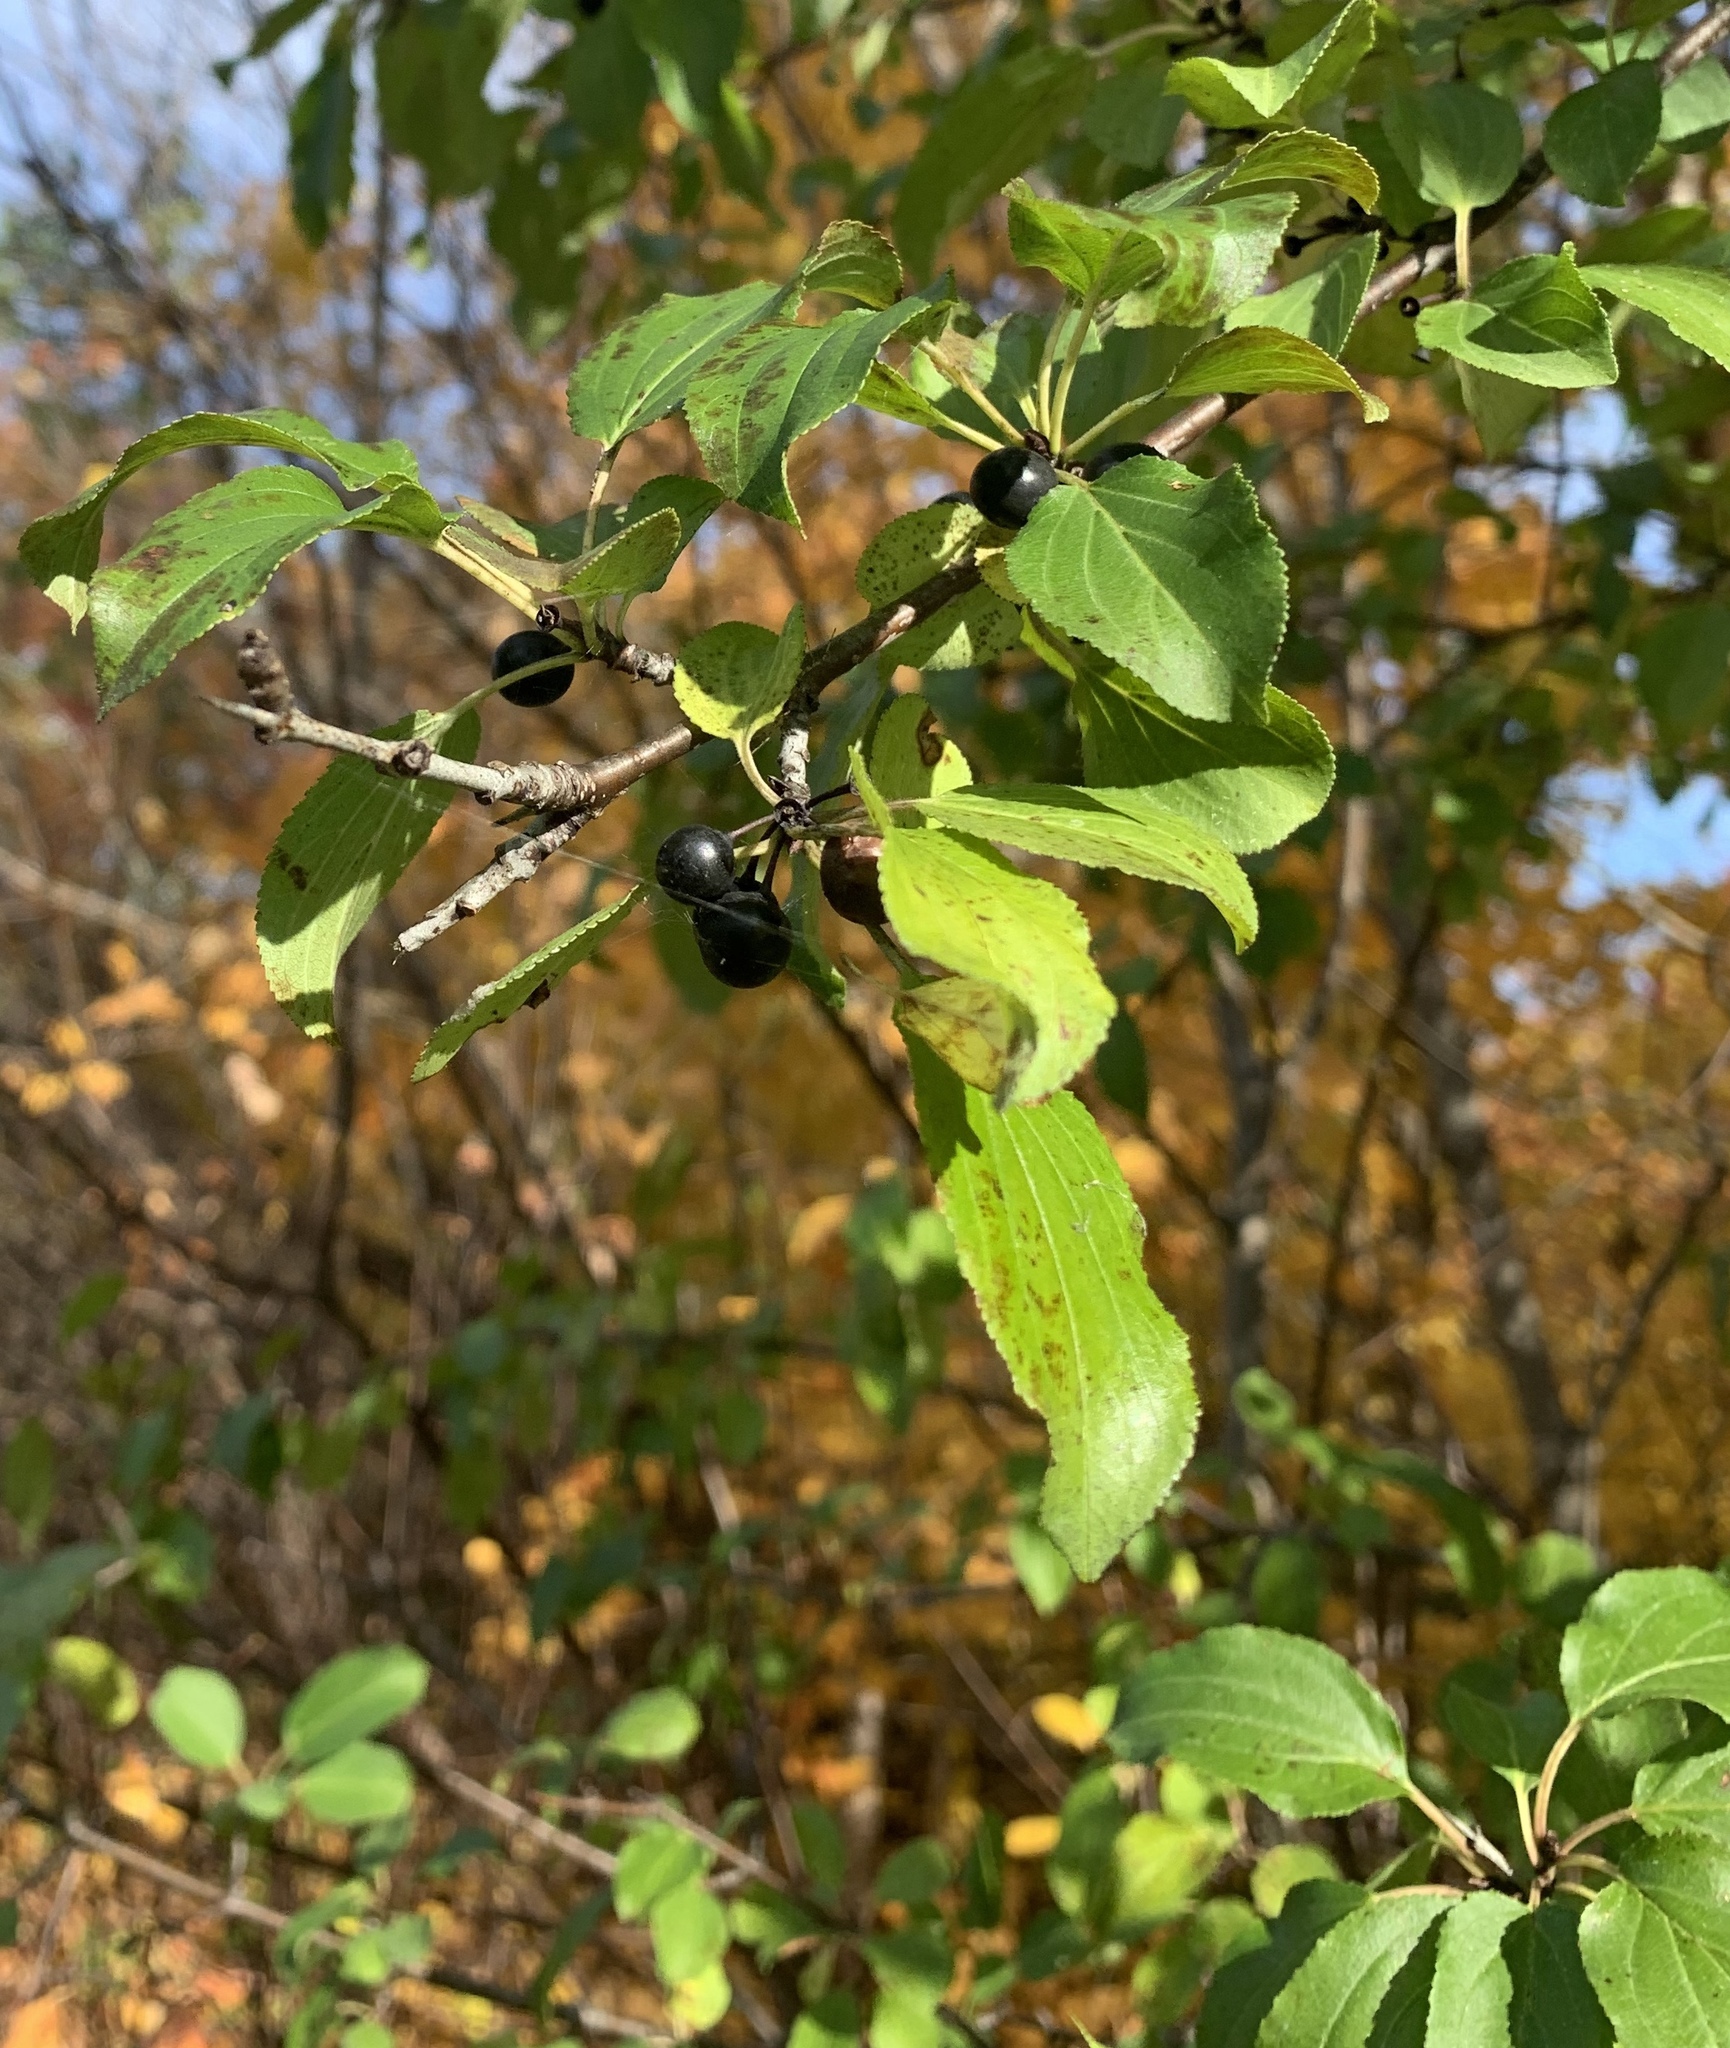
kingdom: Plantae
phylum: Tracheophyta
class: Magnoliopsida
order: Rosales
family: Rhamnaceae
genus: Rhamnus
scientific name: Rhamnus cathartica
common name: Common buckthorn
